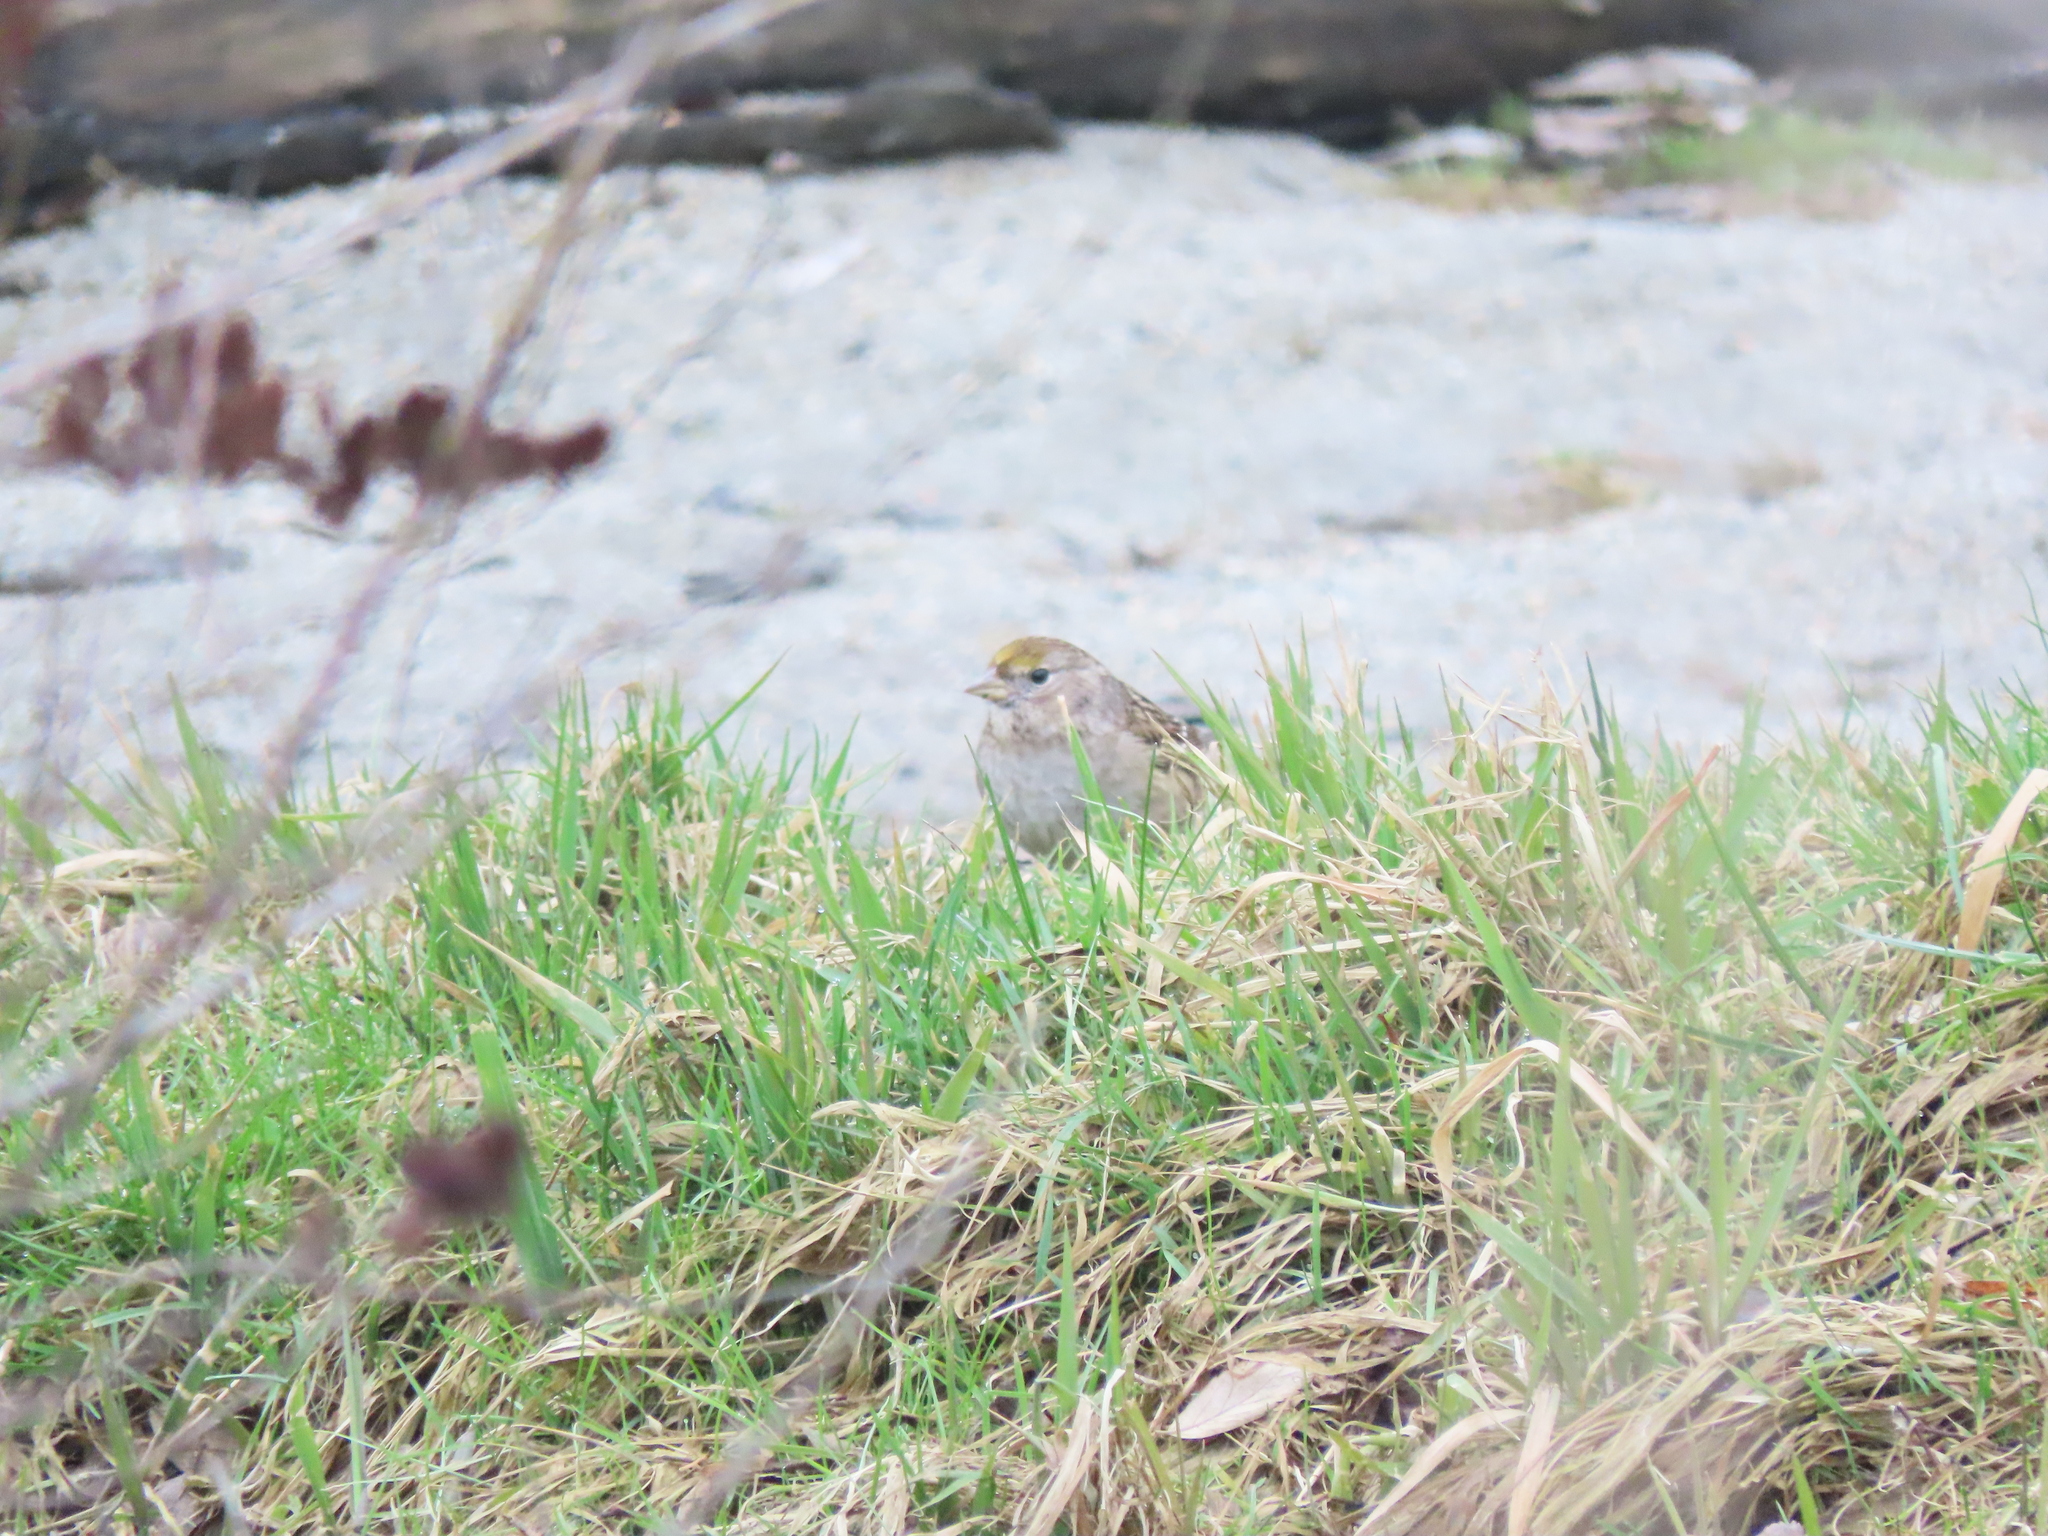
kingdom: Animalia
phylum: Chordata
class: Aves
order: Passeriformes
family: Passerellidae
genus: Zonotrichia
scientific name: Zonotrichia atricapilla
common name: Golden-crowned sparrow
